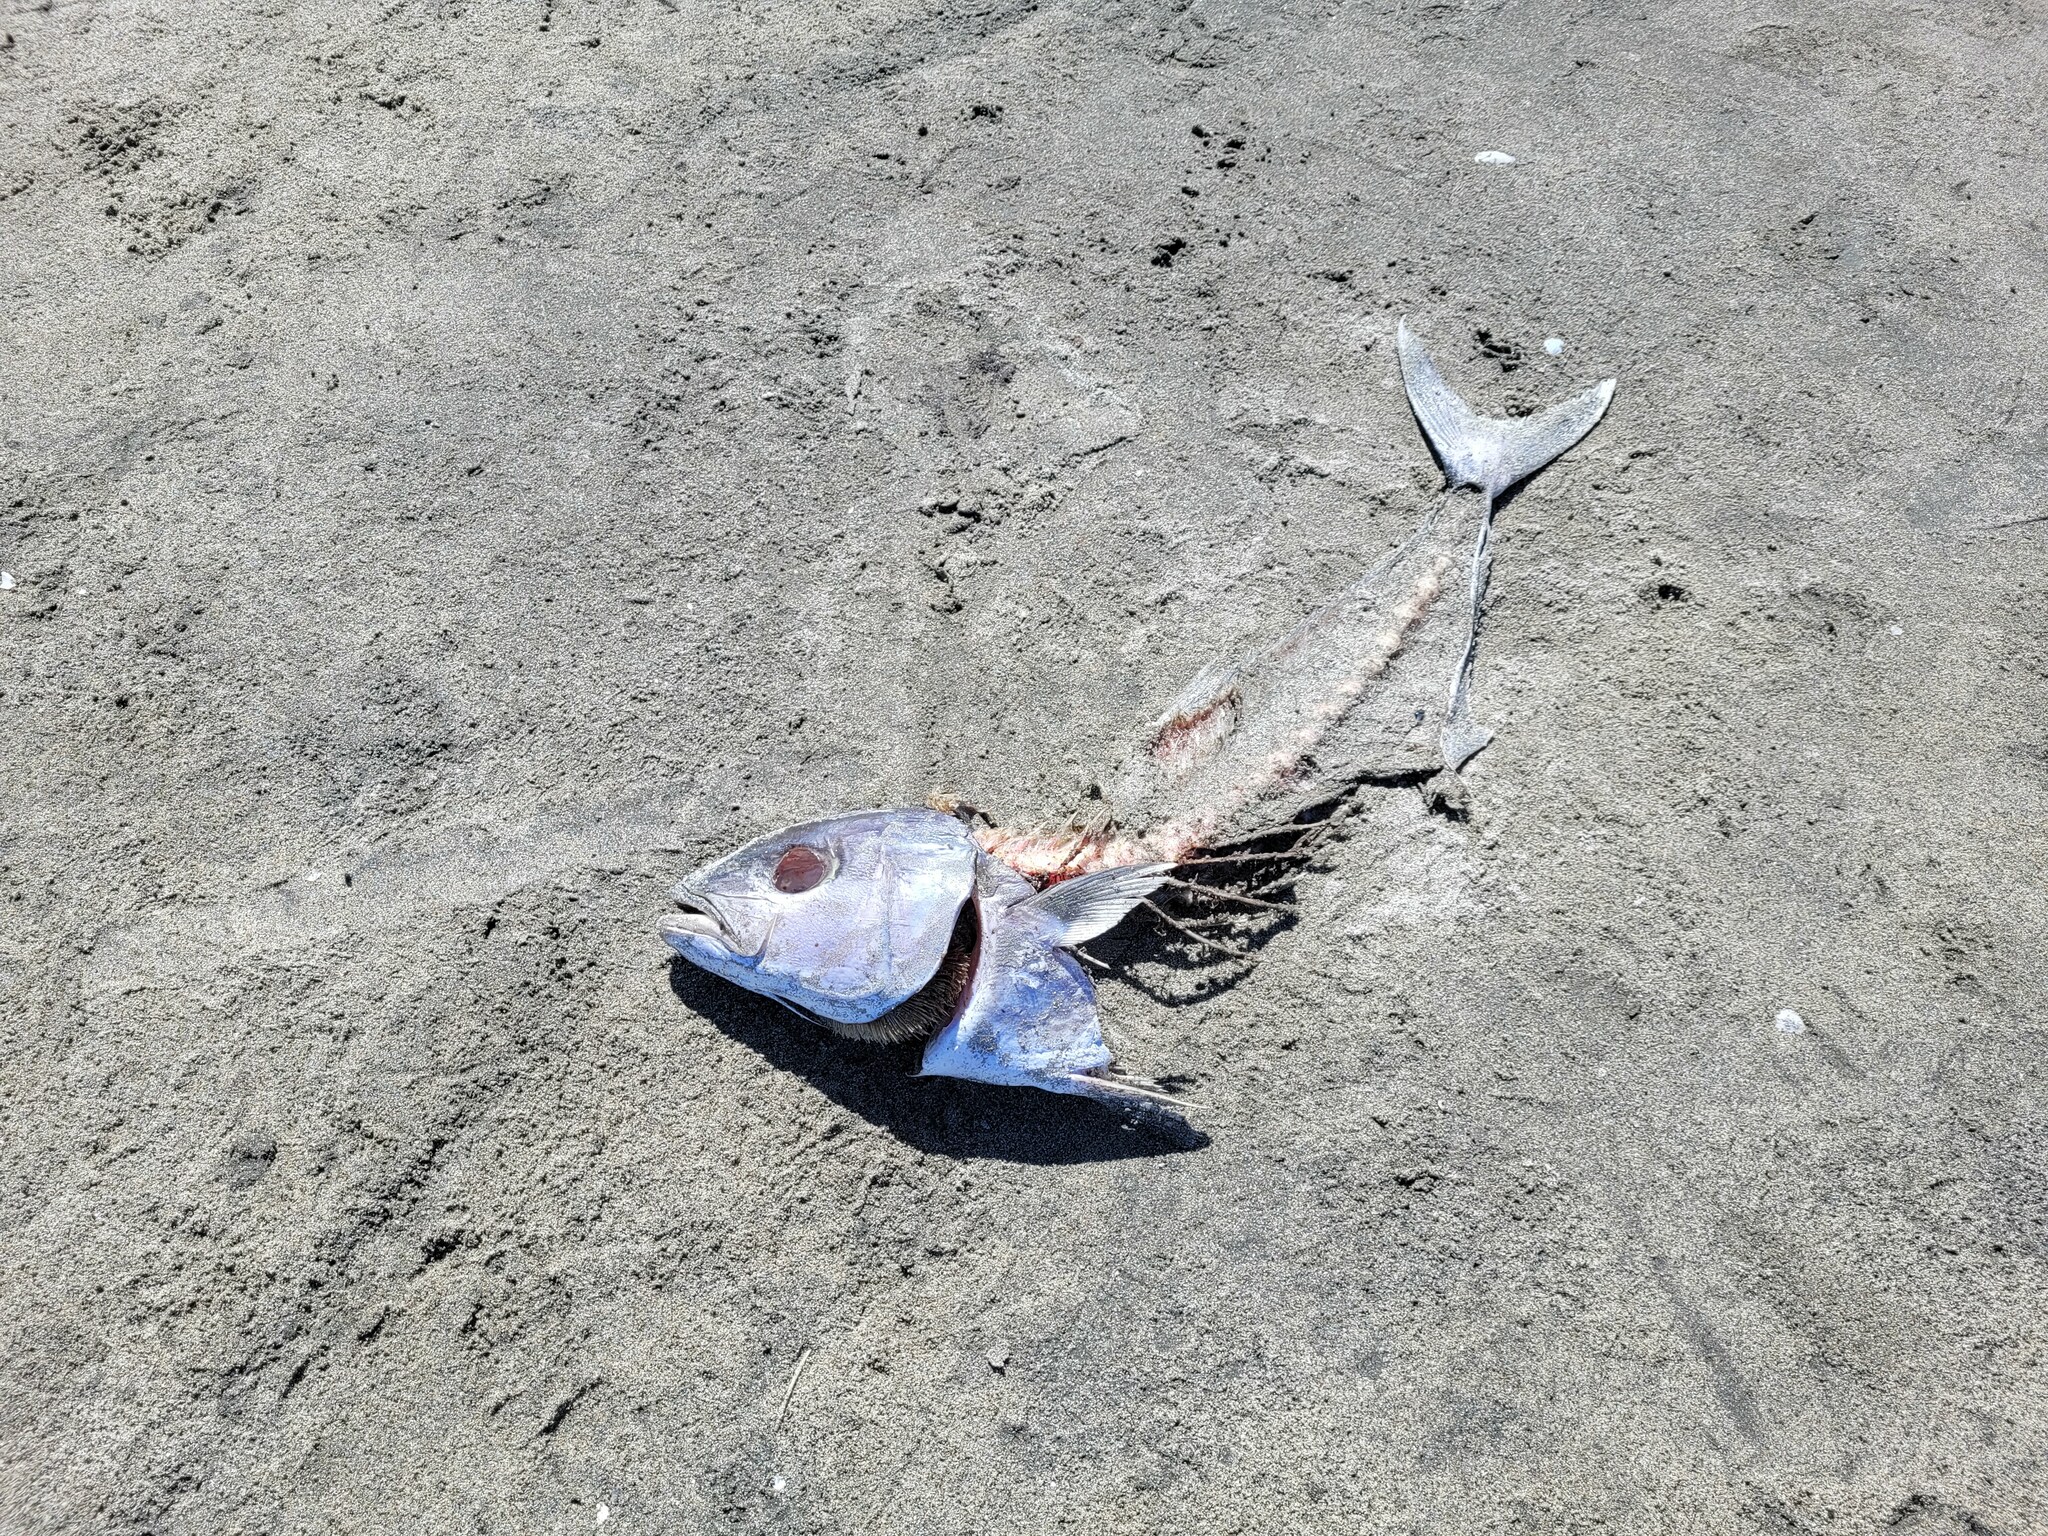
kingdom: Animalia
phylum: Chordata
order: Perciformes
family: Carangidae
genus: Seriola
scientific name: Seriola lalandi
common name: Yellowtail kingfish
